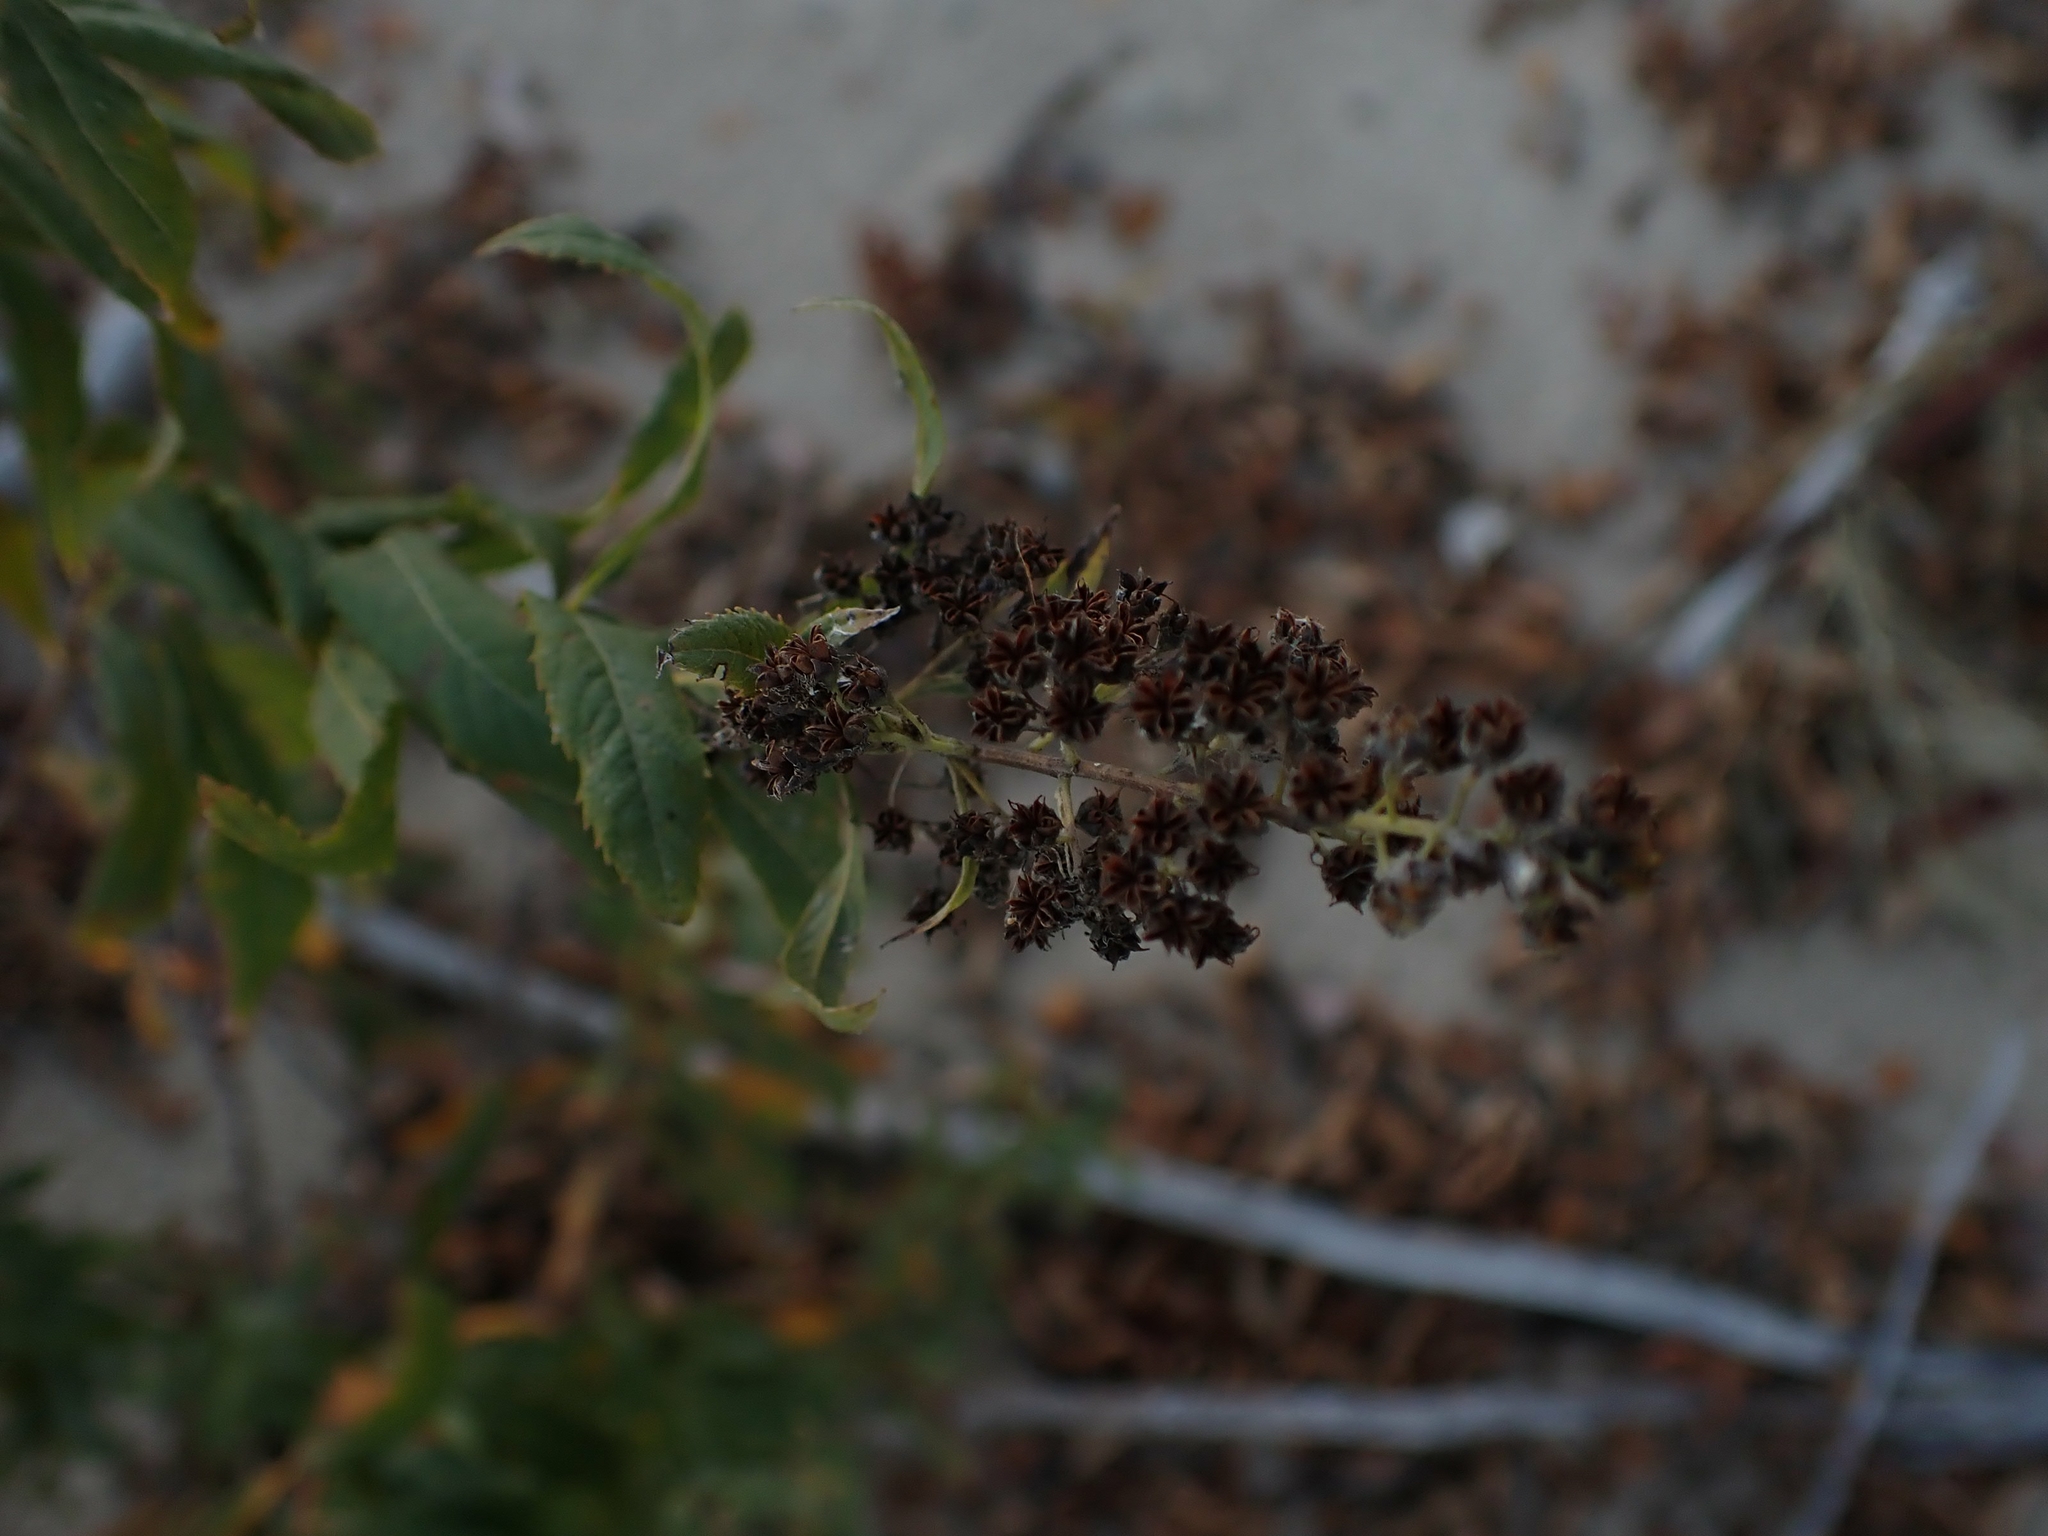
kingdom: Plantae
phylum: Tracheophyta
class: Magnoliopsida
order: Rosales
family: Rosaceae
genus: Spiraea
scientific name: Spiraea alba
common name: Pale bridewort
